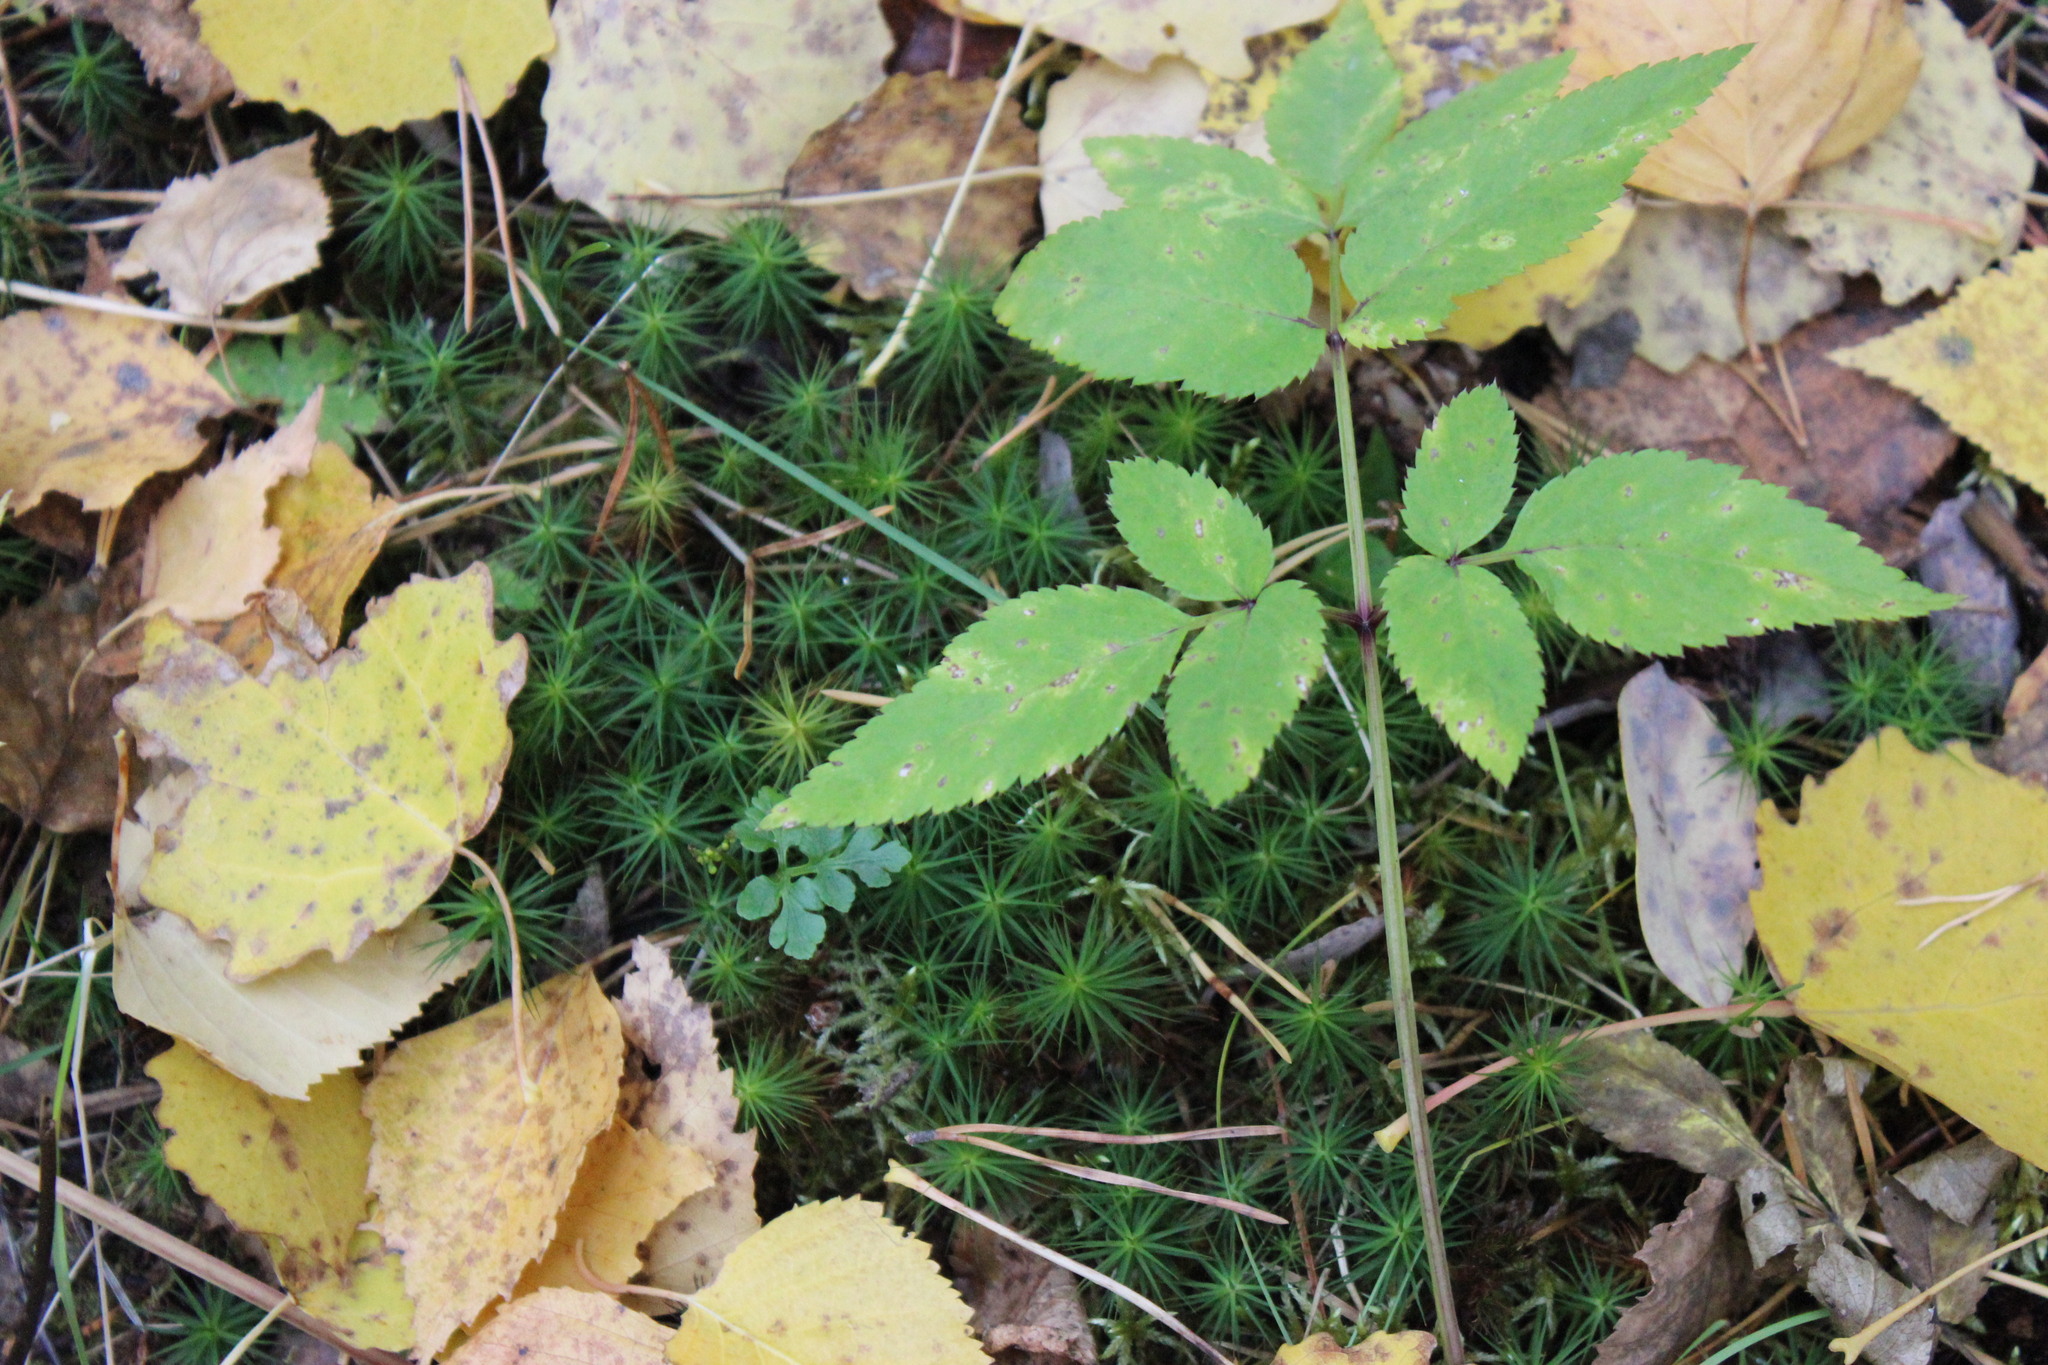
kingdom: Plantae
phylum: Tracheophyta
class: Magnoliopsida
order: Apiales
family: Apiaceae
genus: Angelica
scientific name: Angelica sylvestris
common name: Wild angelica
